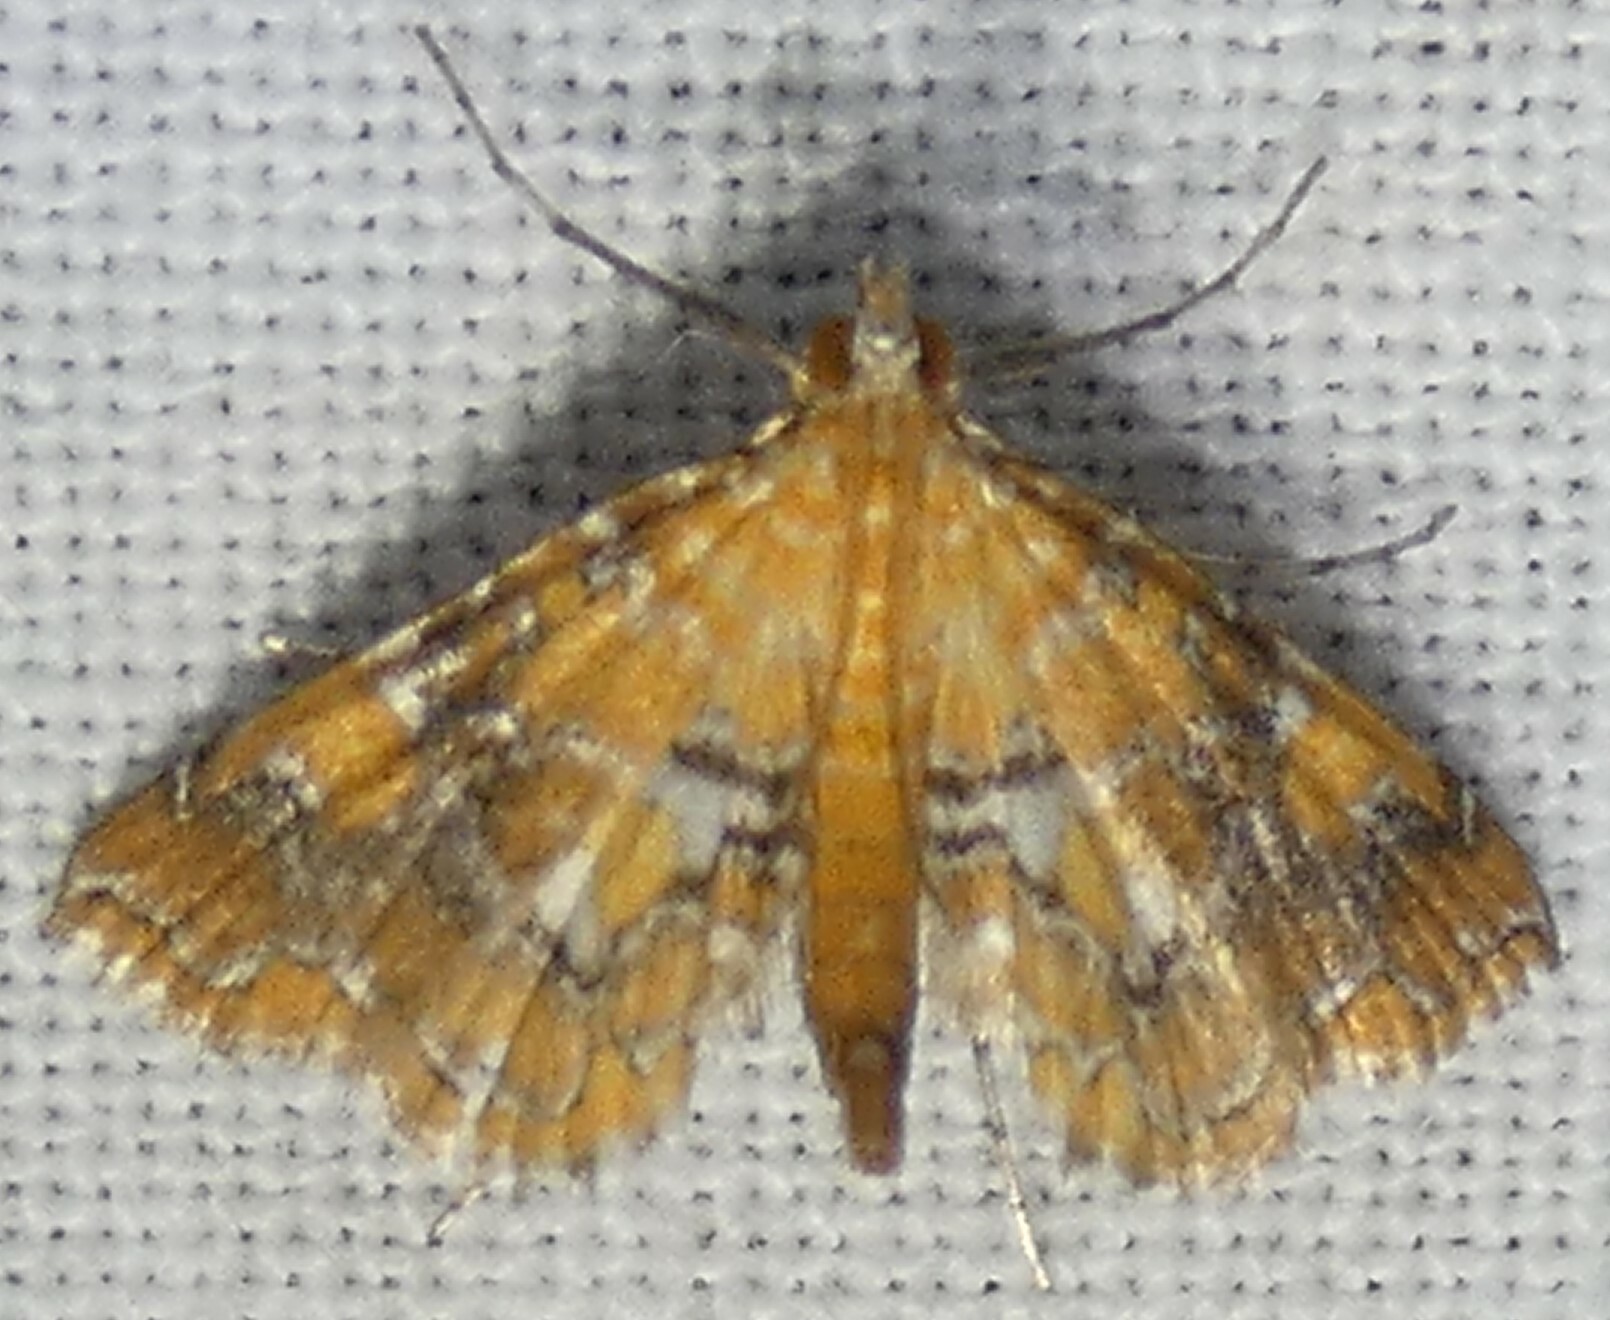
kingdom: Animalia
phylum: Arthropoda
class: Insecta
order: Lepidoptera
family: Crambidae
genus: Elophila
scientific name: Elophila nebulosalis
